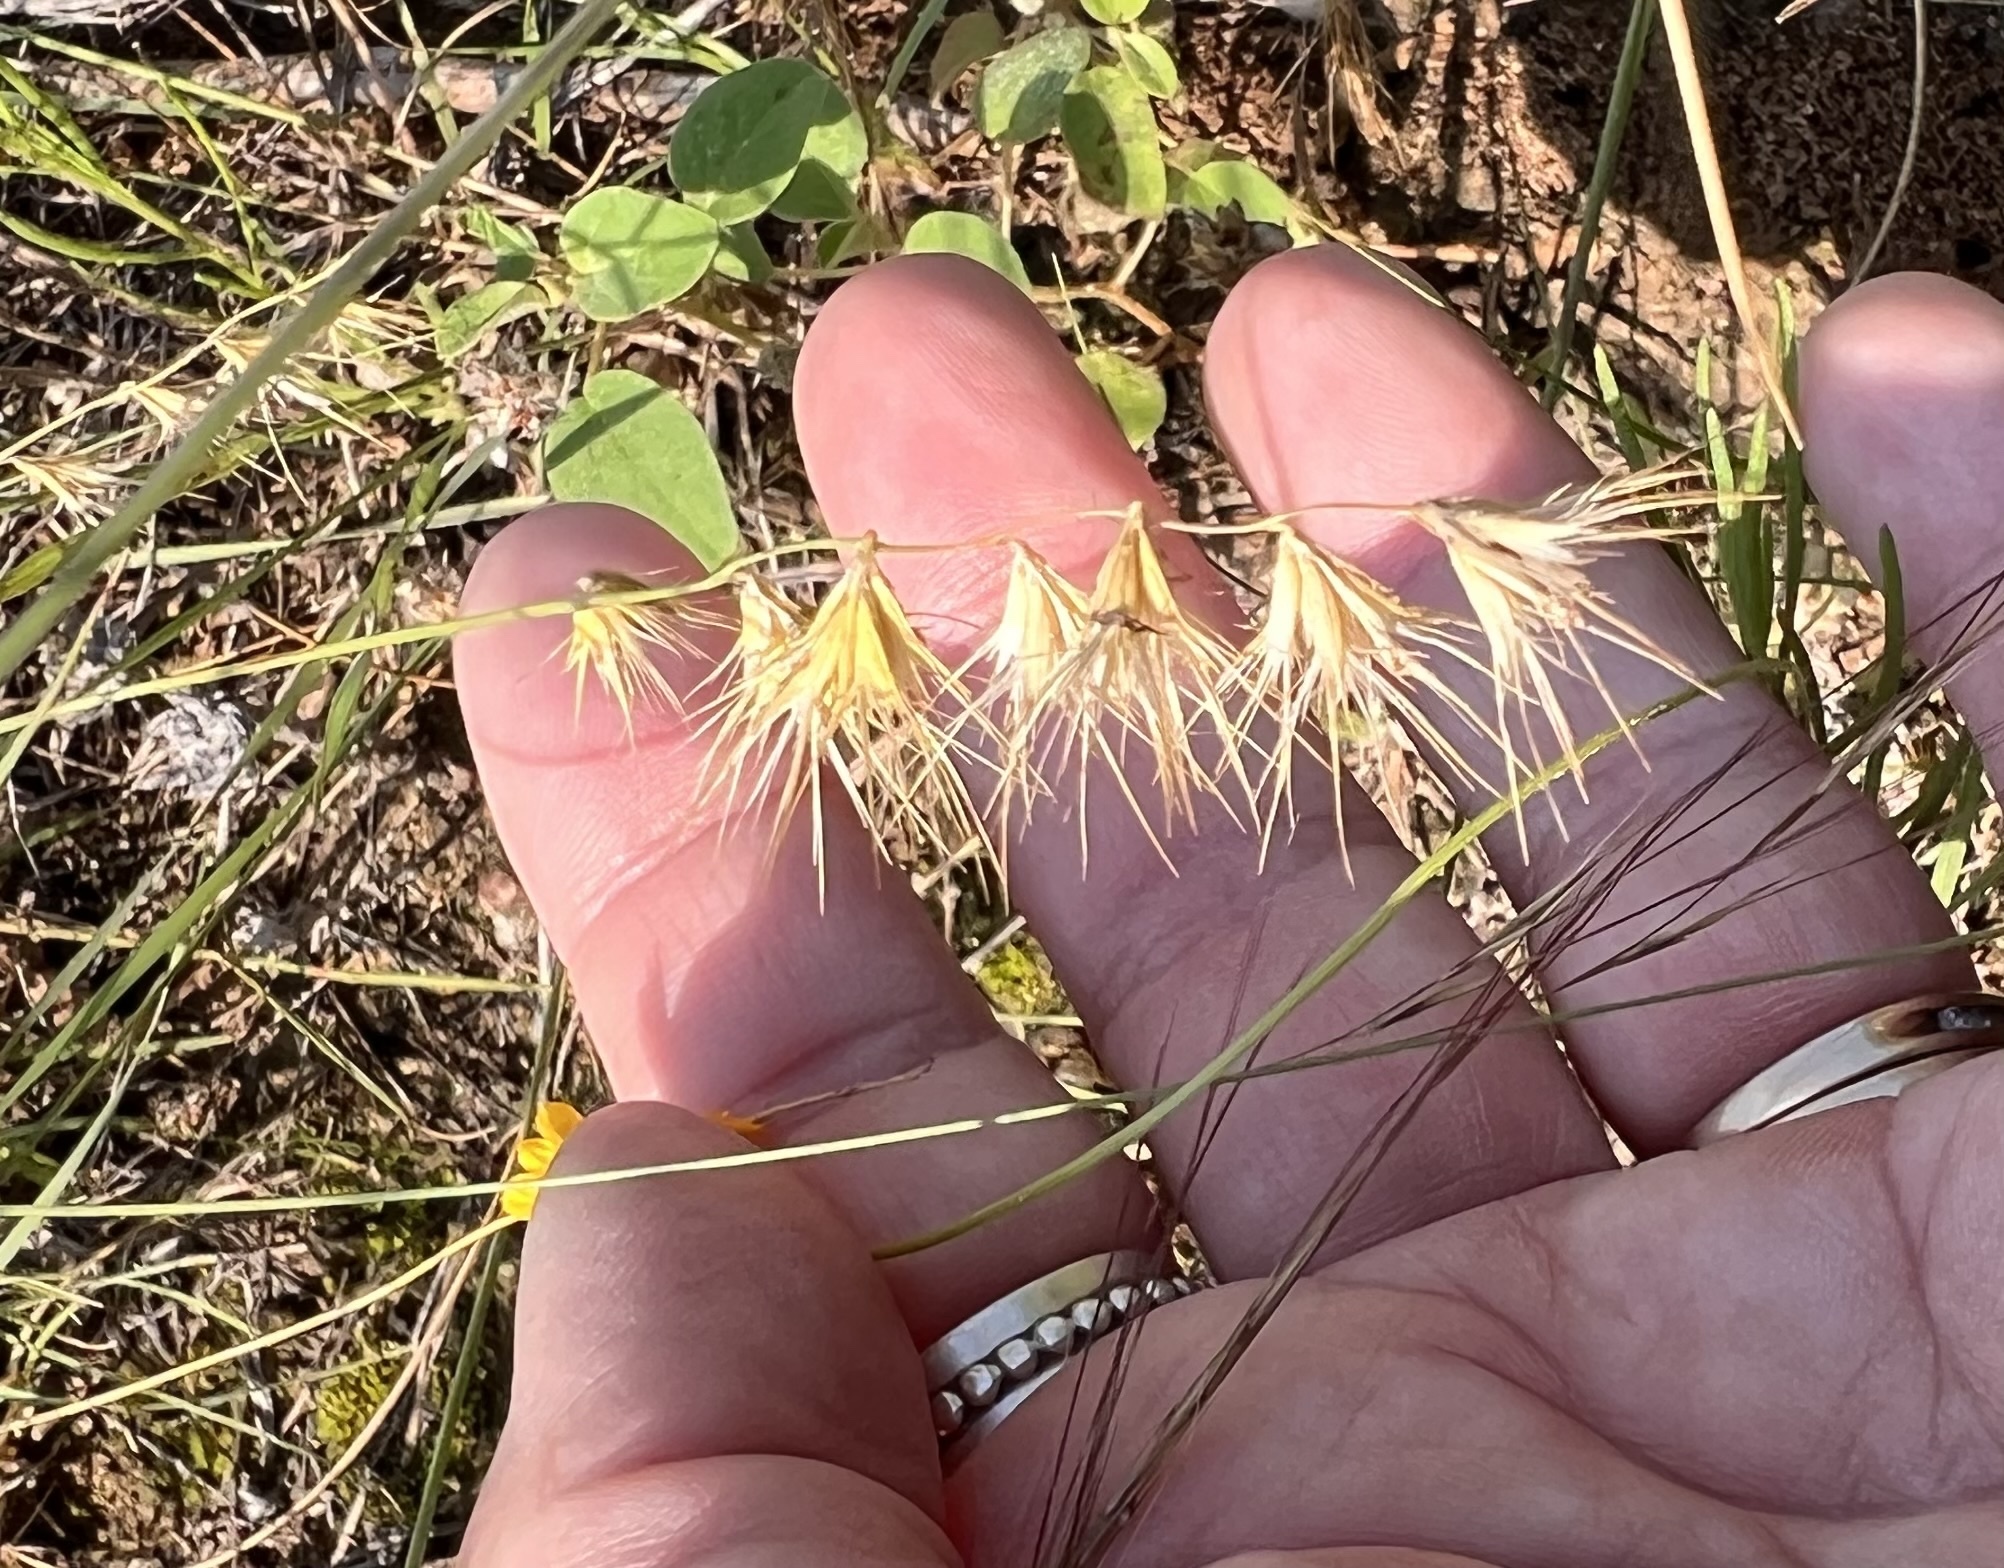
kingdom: Plantae
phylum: Tracheophyta
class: Liliopsida
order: Poales
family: Poaceae
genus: Bouteloua
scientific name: Bouteloua rigidiseta
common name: Texas grama
